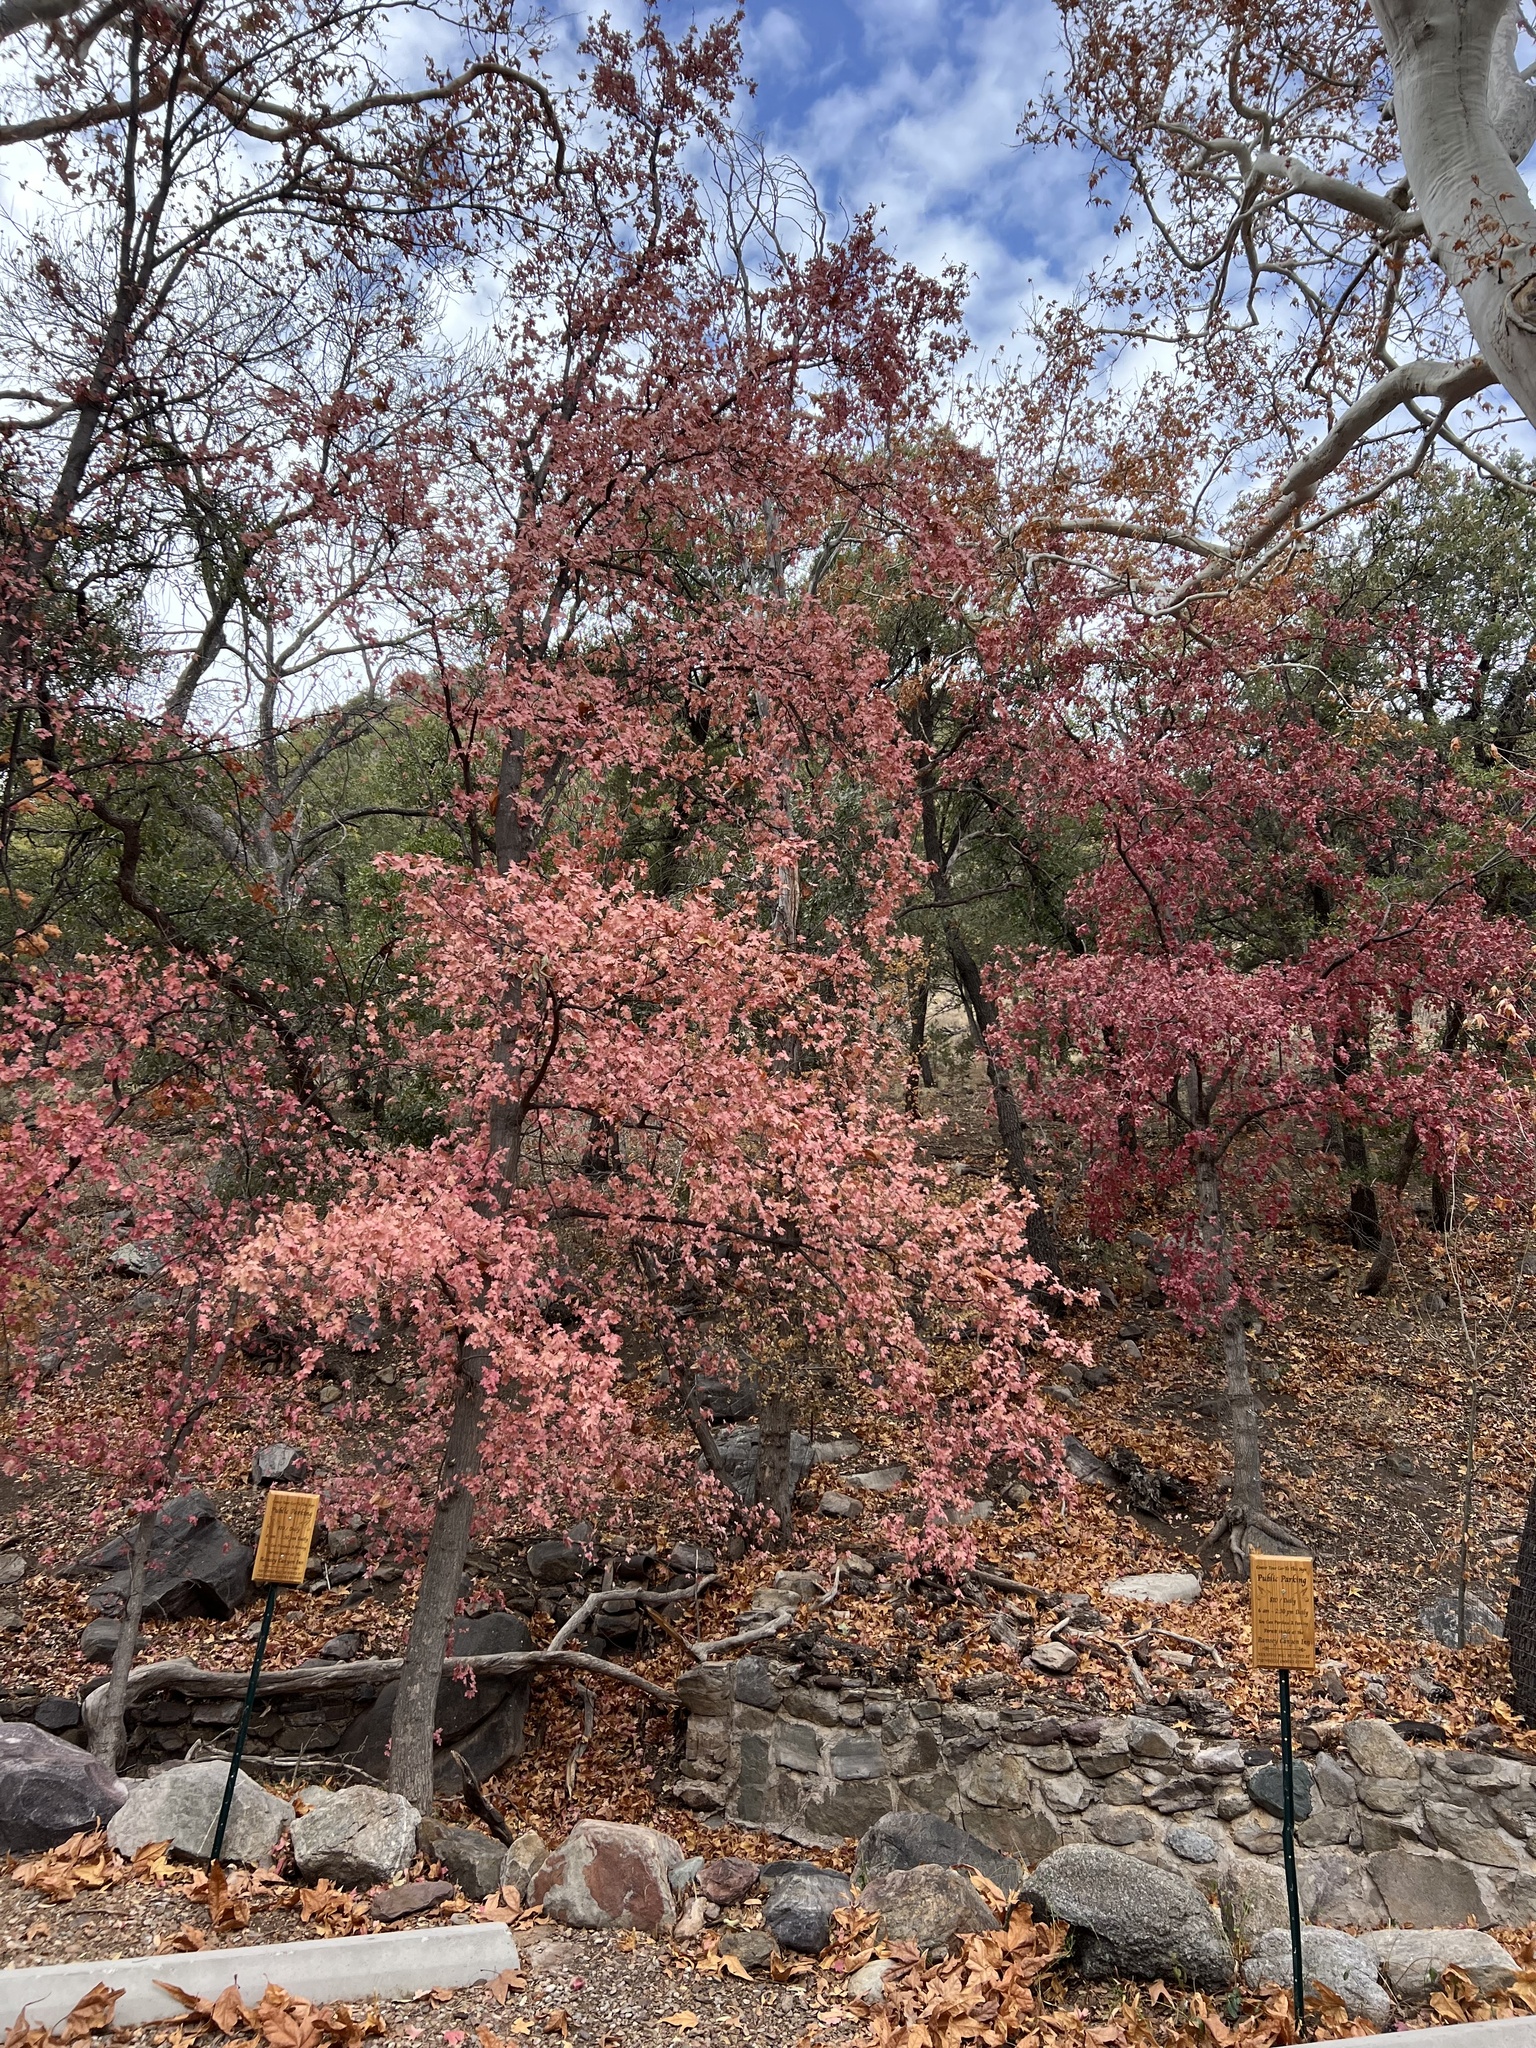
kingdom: Plantae
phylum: Tracheophyta
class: Magnoliopsida
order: Sapindales
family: Sapindaceae
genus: Acer
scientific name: Acer grandidentatum
